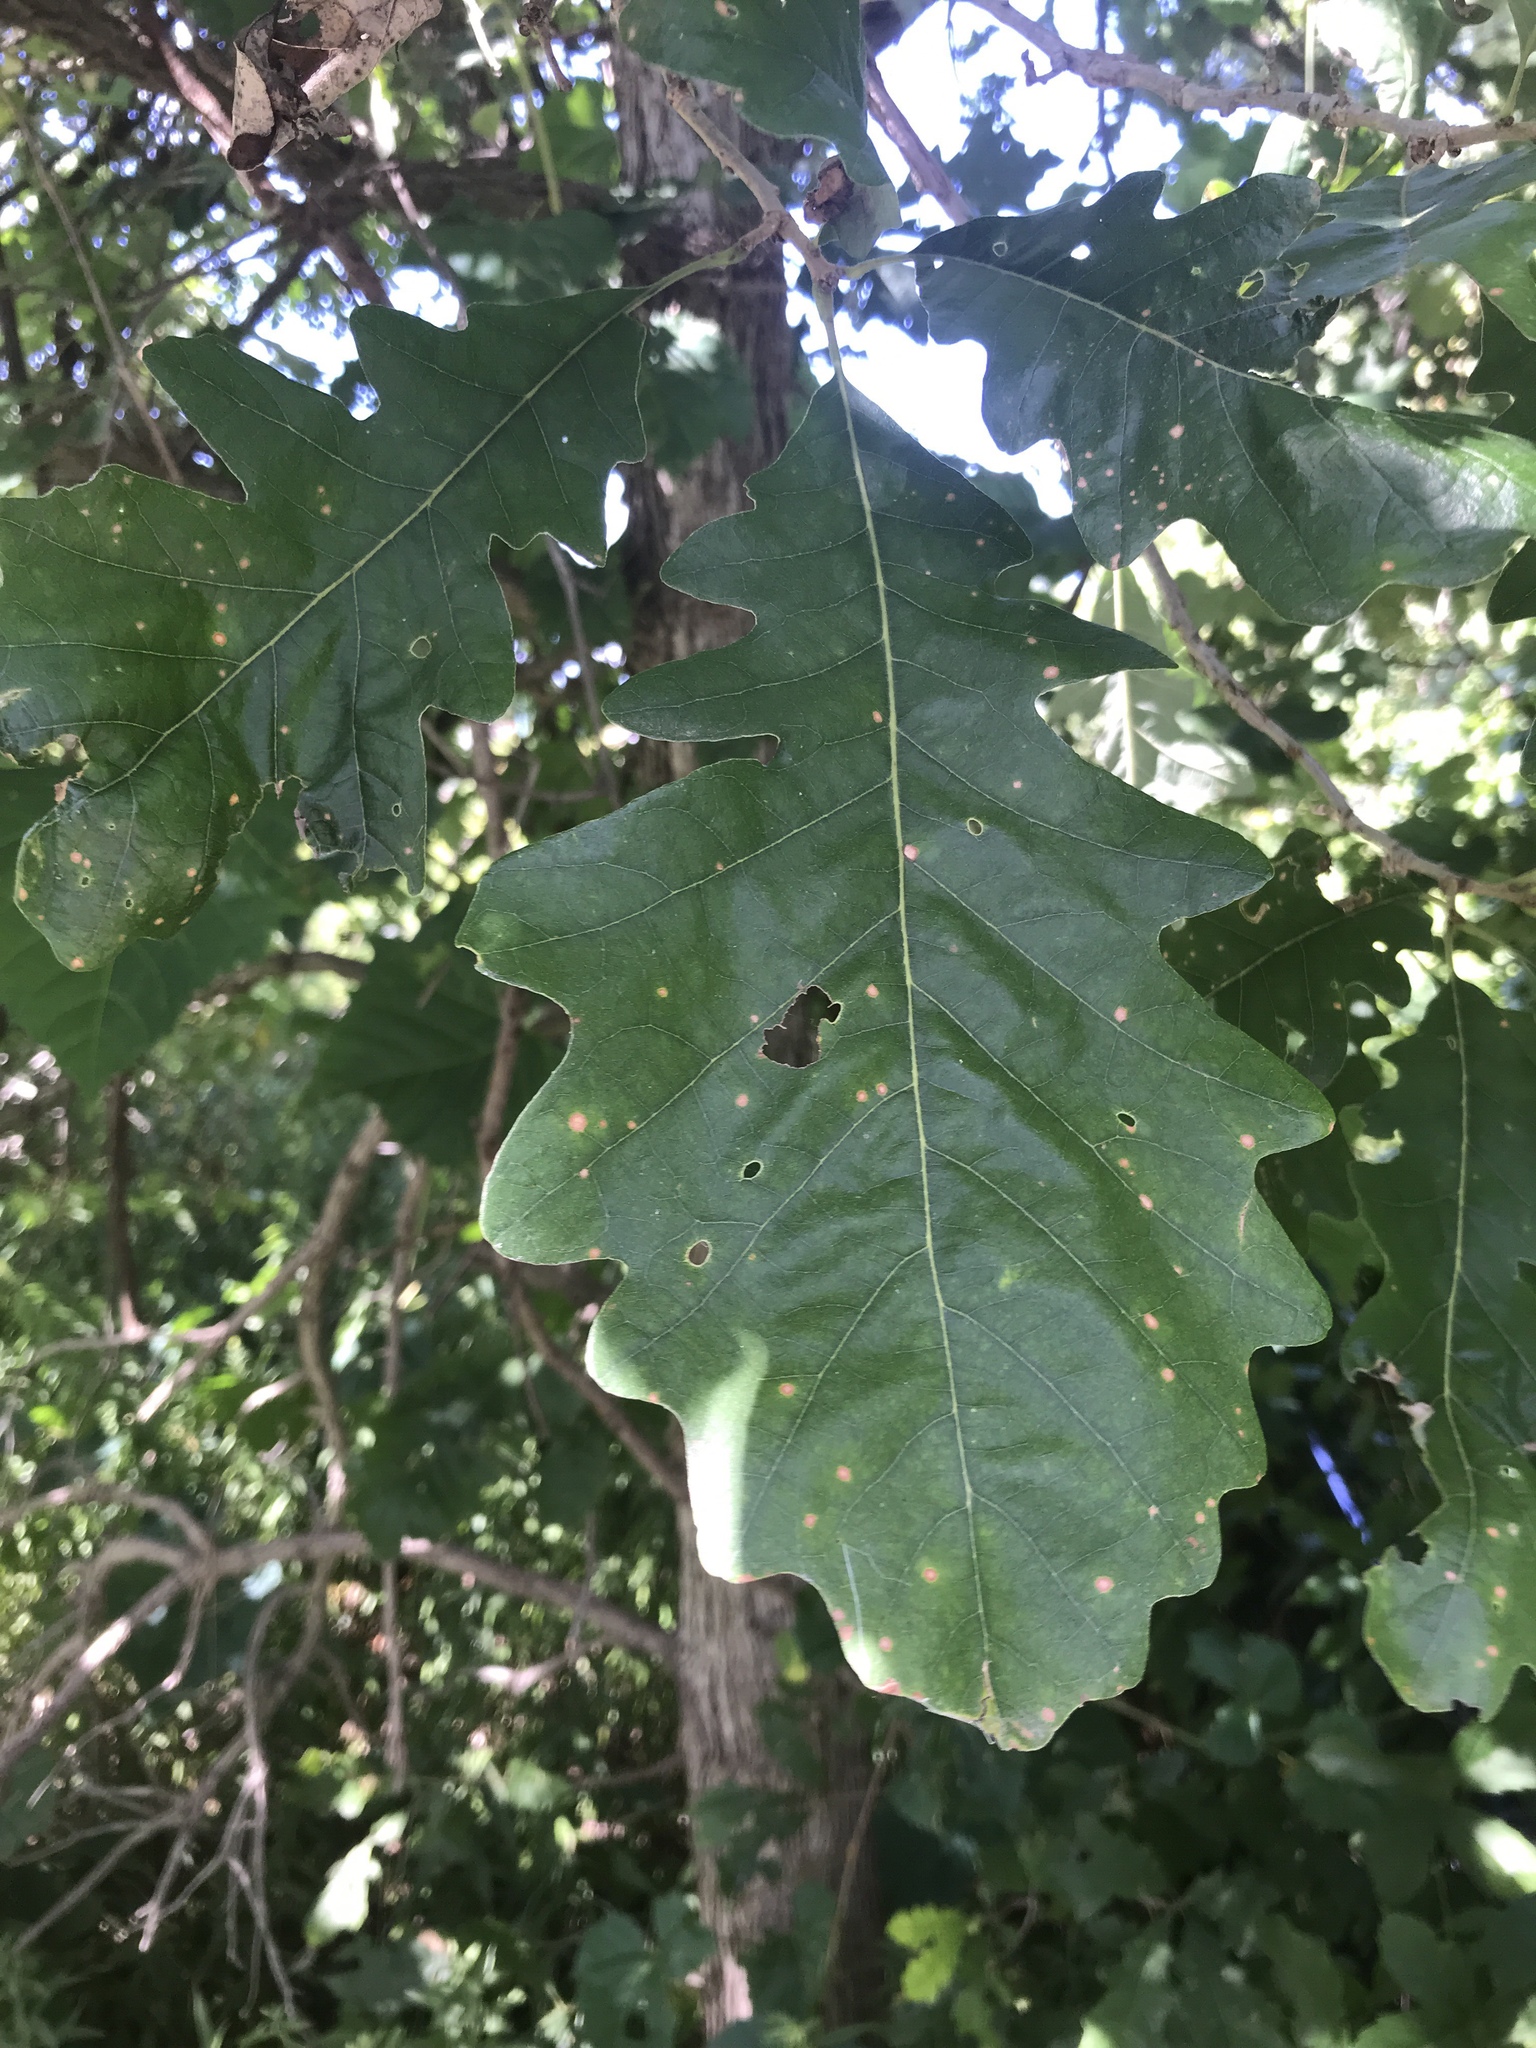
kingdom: Plantae
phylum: Tracheophyta
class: Magnoliopsida
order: Fagales
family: Fagaceae
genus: Quercus
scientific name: Quercus macrocarpa
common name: Bur oak
